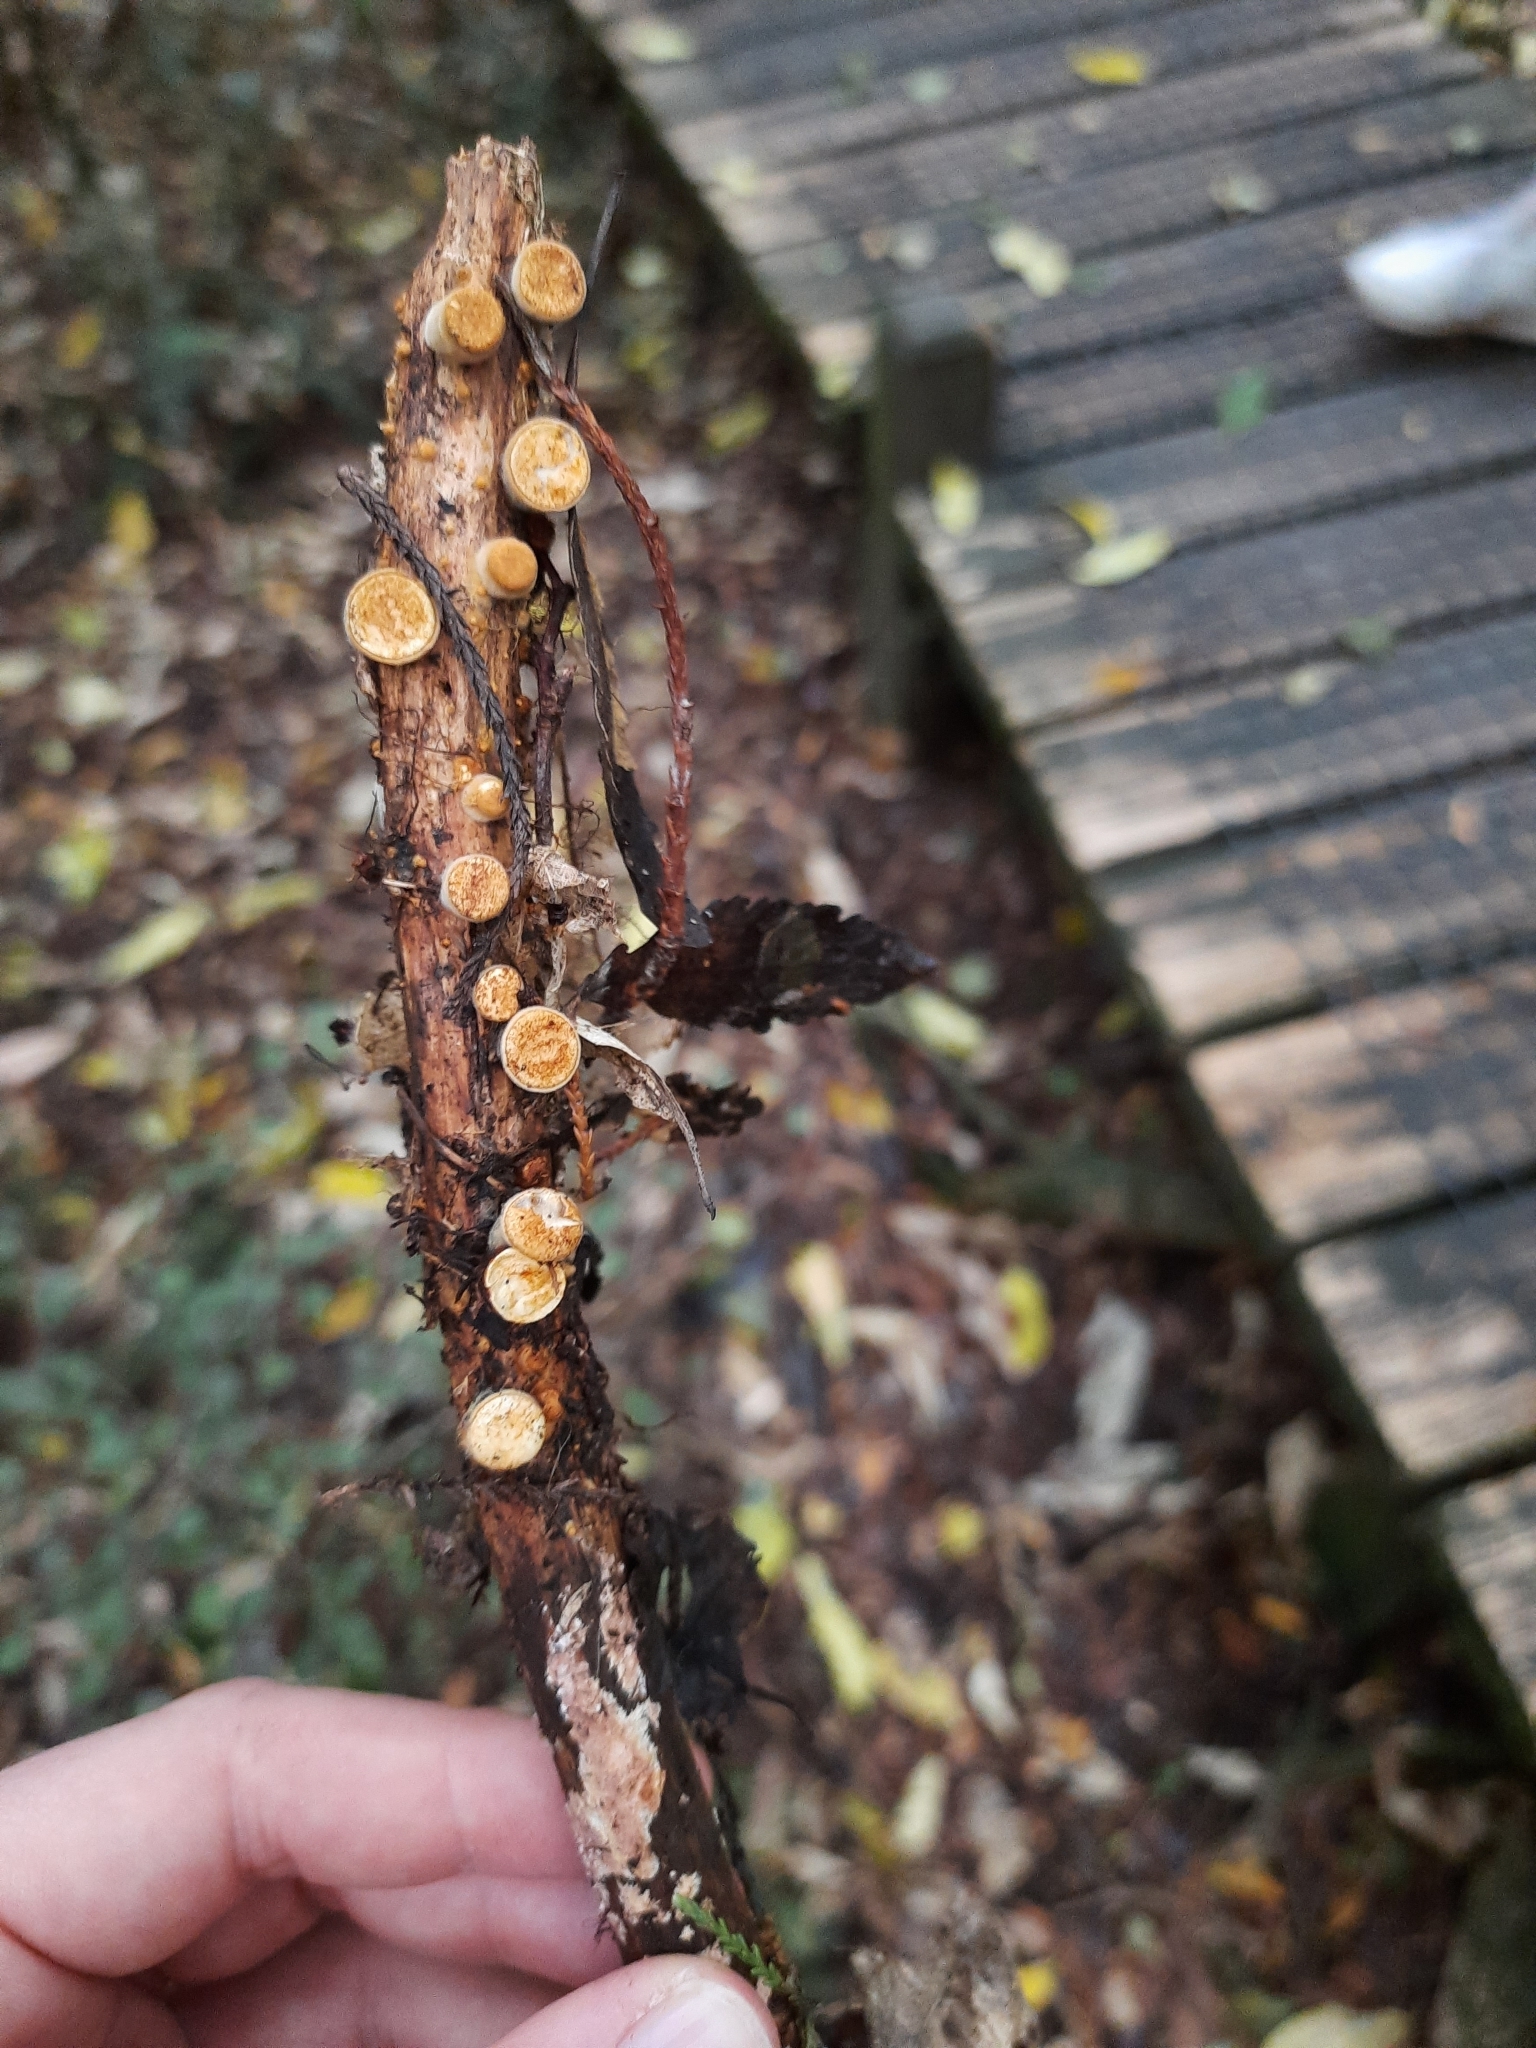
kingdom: Fungi
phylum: Basidiomycota
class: Agaricomycetes
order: Agaricales
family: Nidulariaceae
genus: Crucibulum
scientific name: Crucibulum simile
